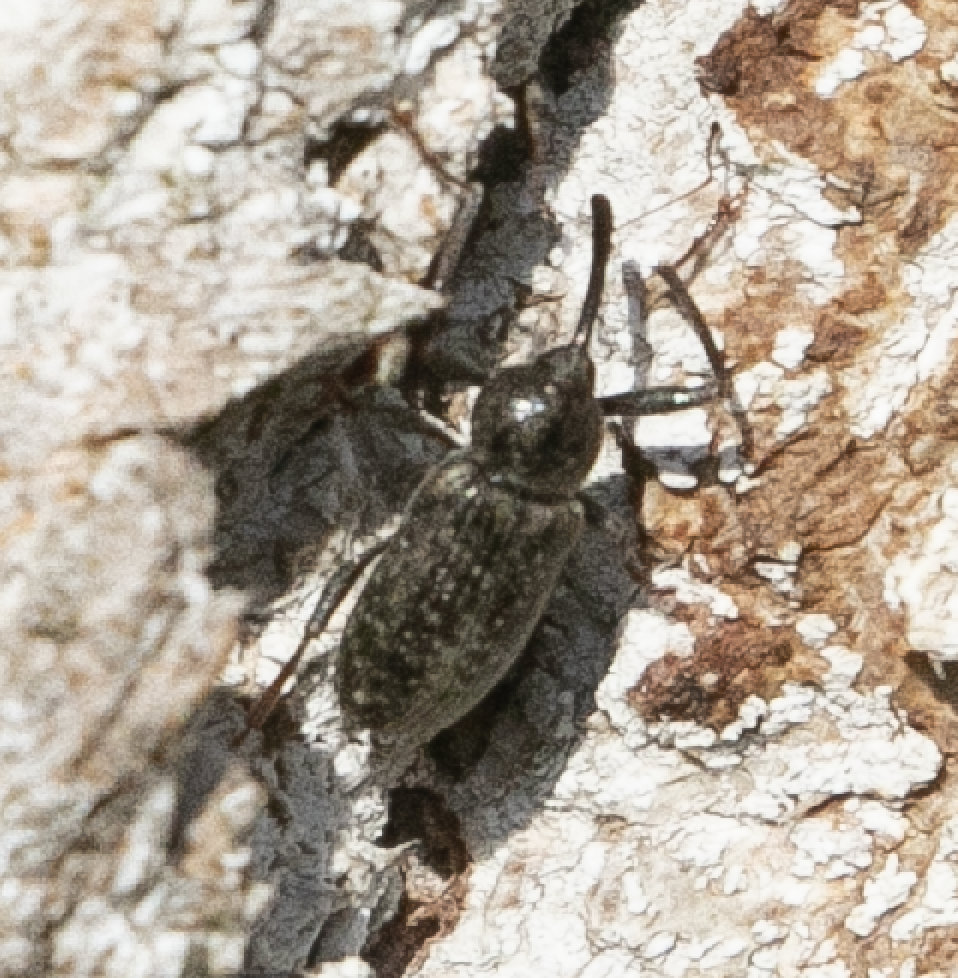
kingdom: Animalia
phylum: Arthropoda
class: Insecta
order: Coleoptera
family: Curculionidae
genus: Dorytomus
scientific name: Dorytomus longimanus
